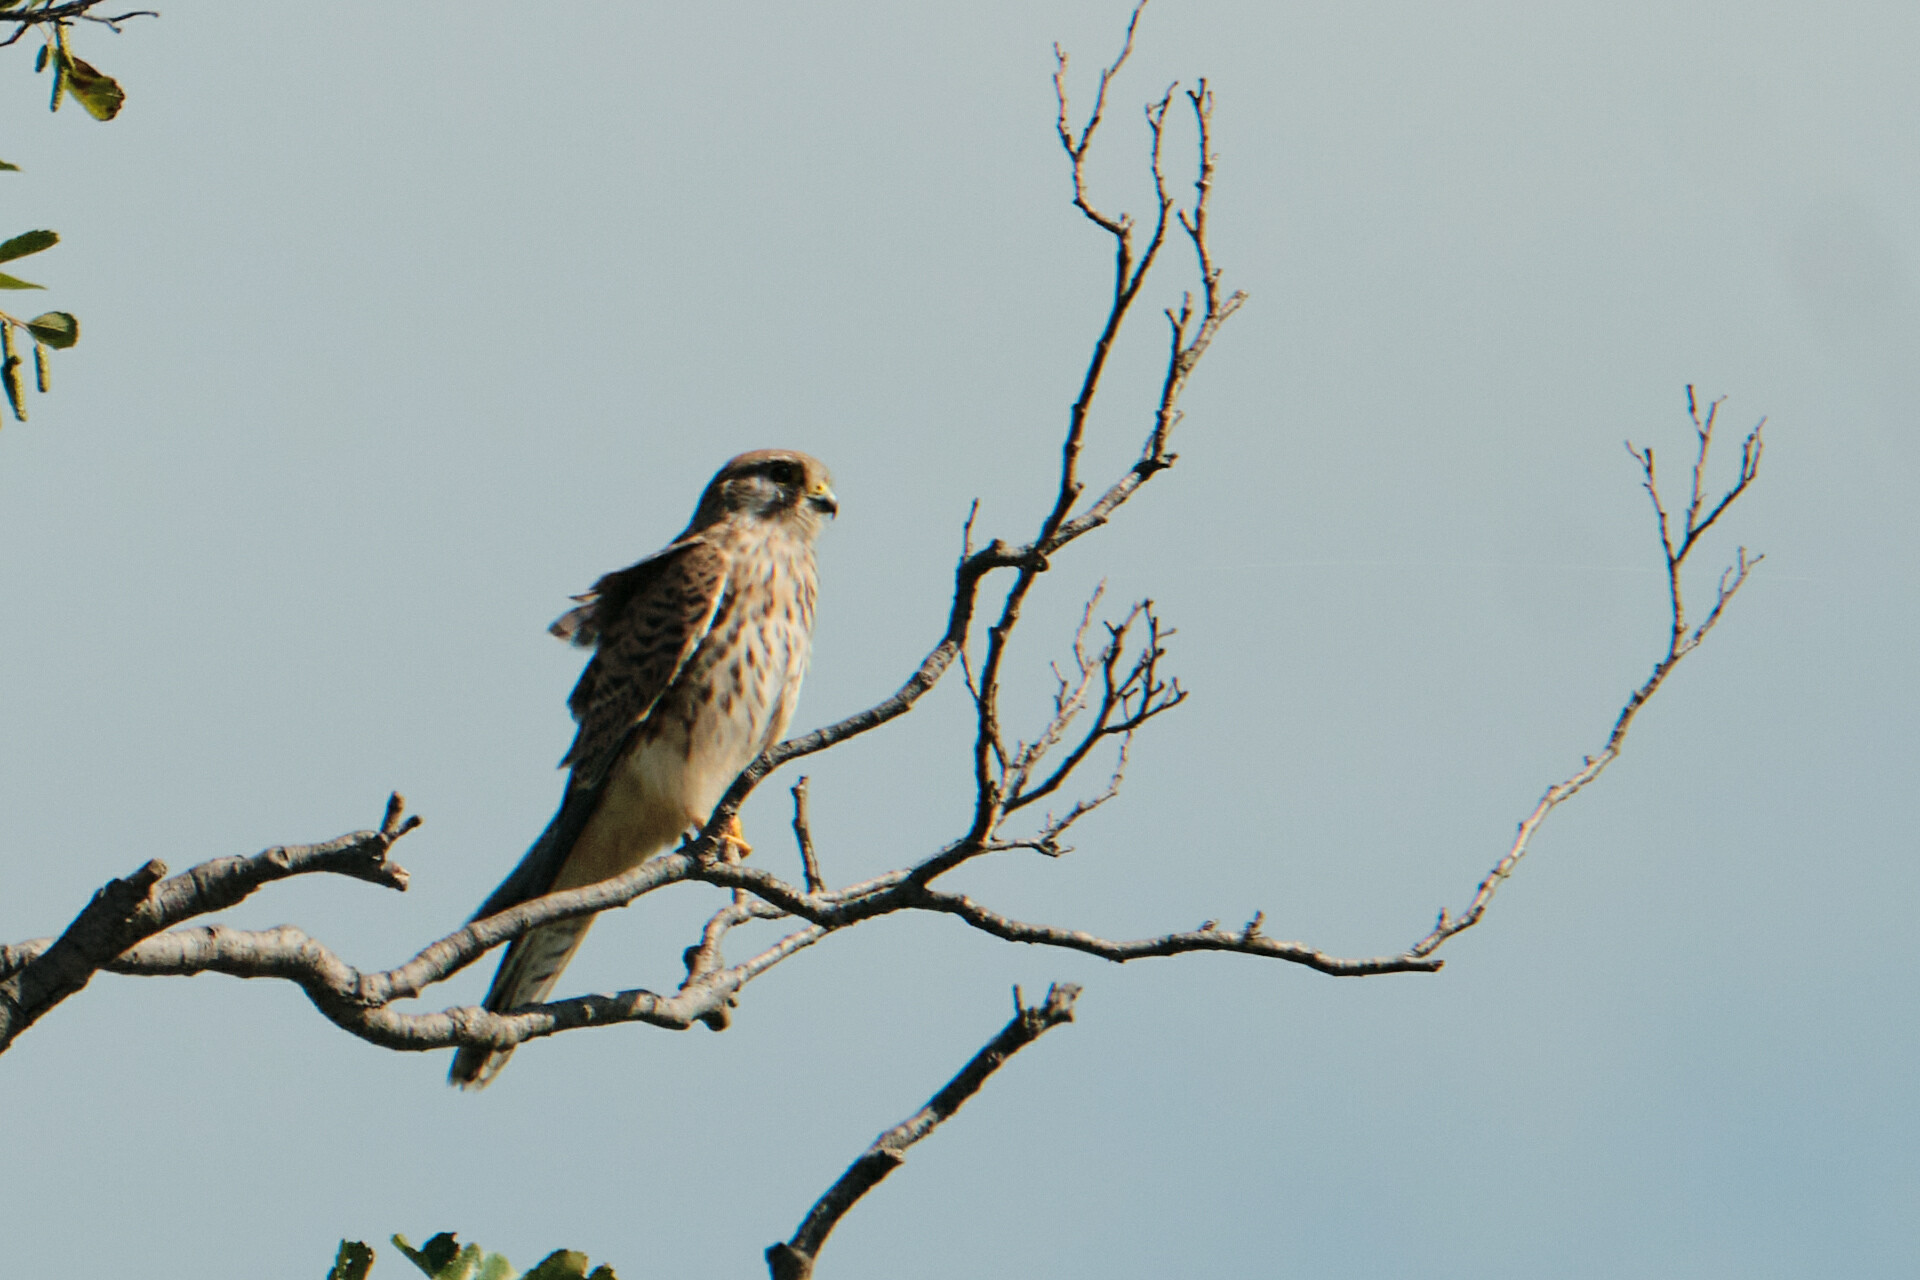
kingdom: Animalia
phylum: Chordata
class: Aves
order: Falconiformes
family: Falconidae
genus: Falco
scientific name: Falco tinnunculus
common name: Common kestrel
